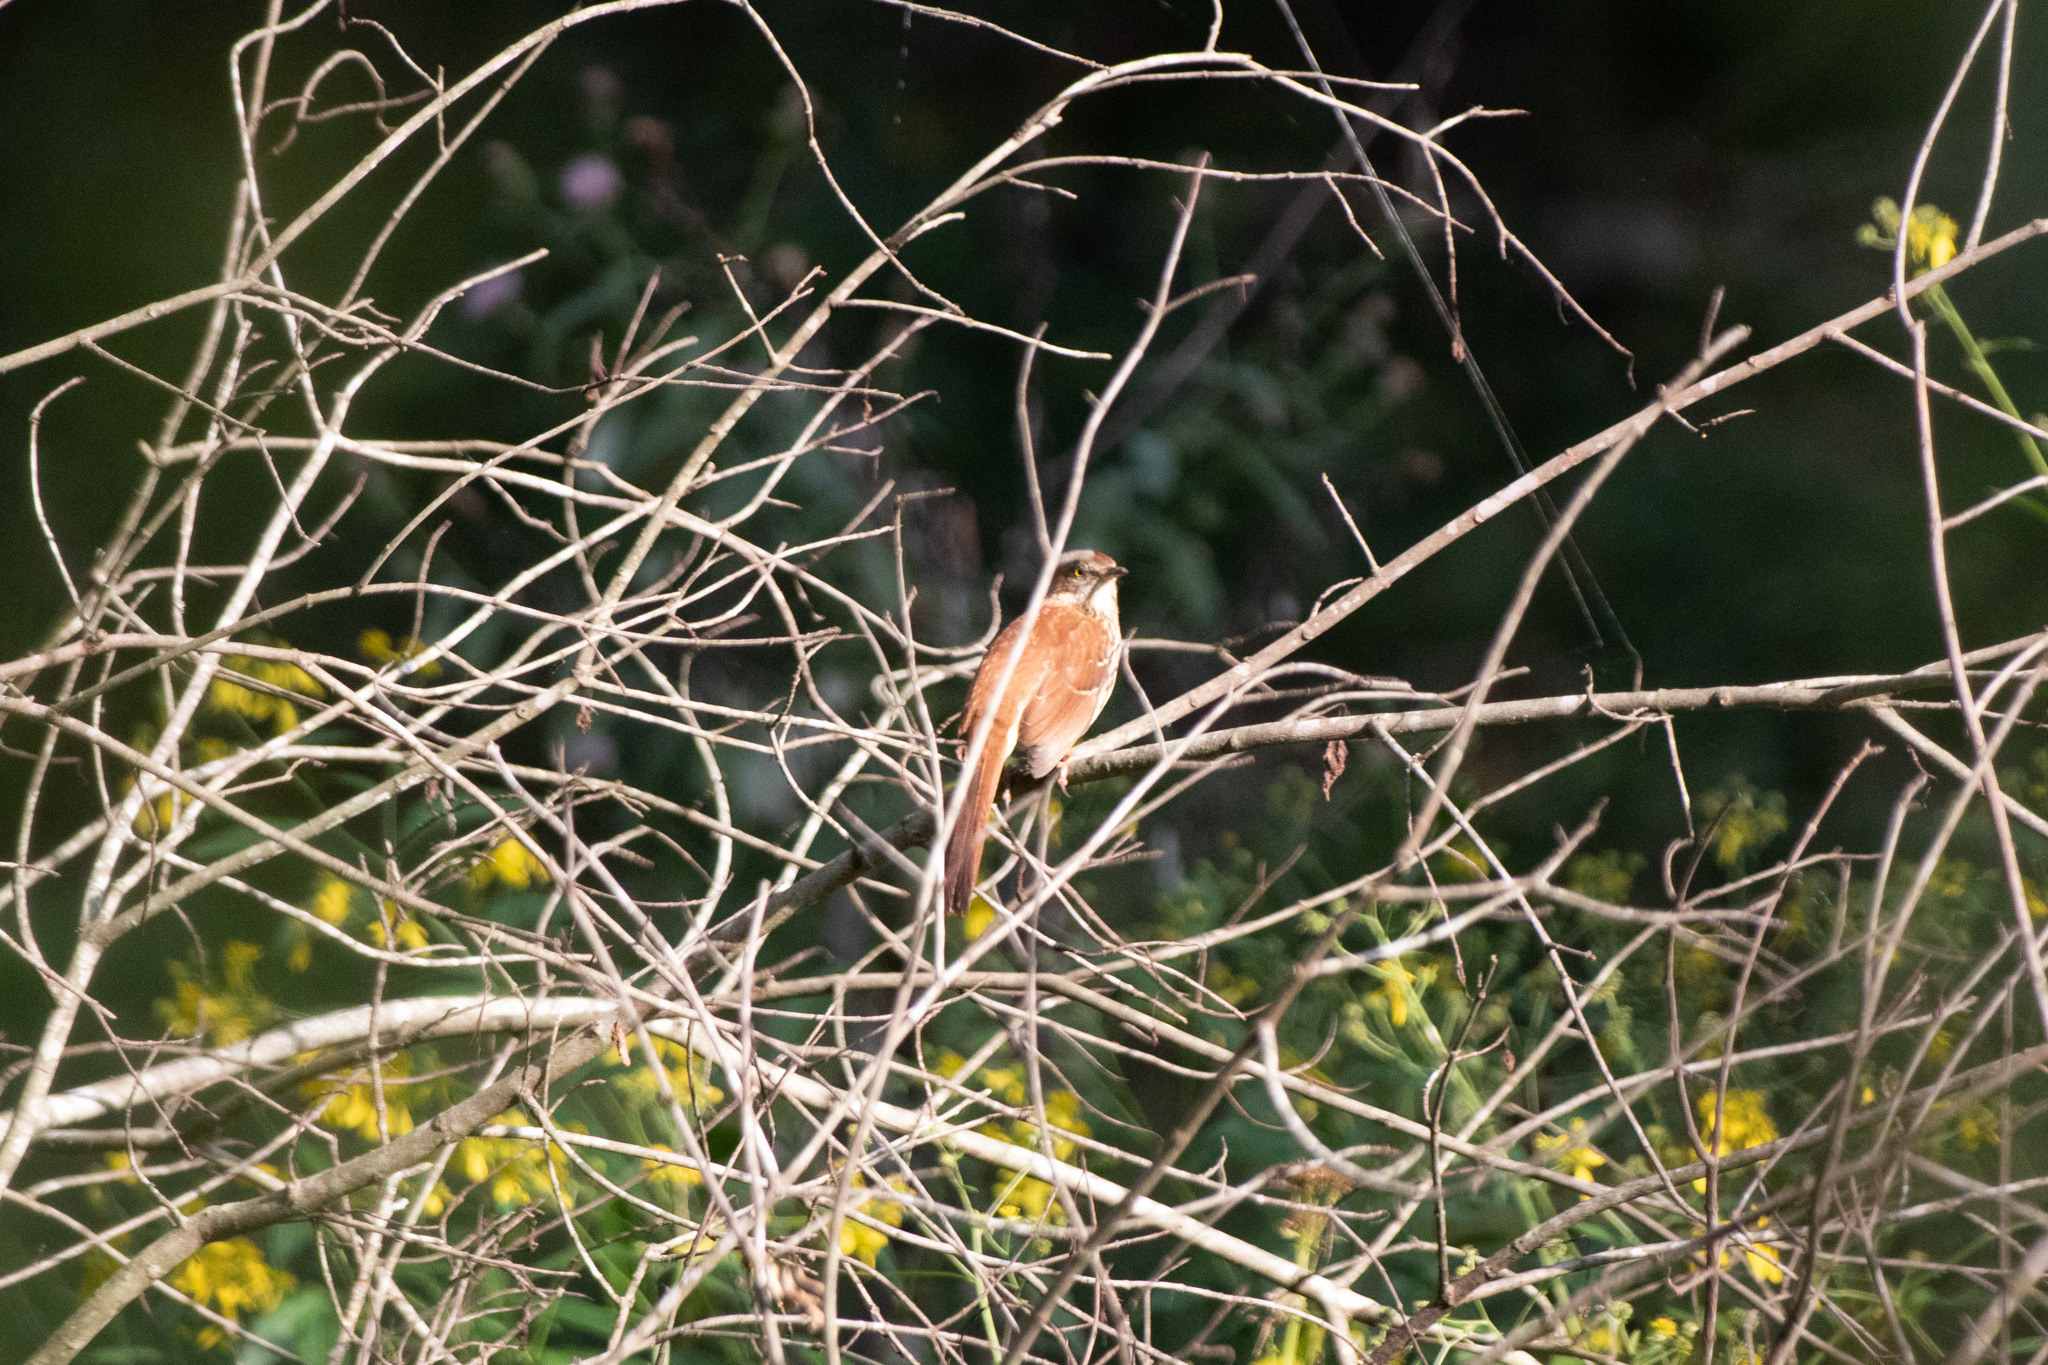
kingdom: Animalia
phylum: Chordata
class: Aves
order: Passeriformes
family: Mimidae
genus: Toxostoma
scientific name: Toxostoma rufum
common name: Brown thrasher
